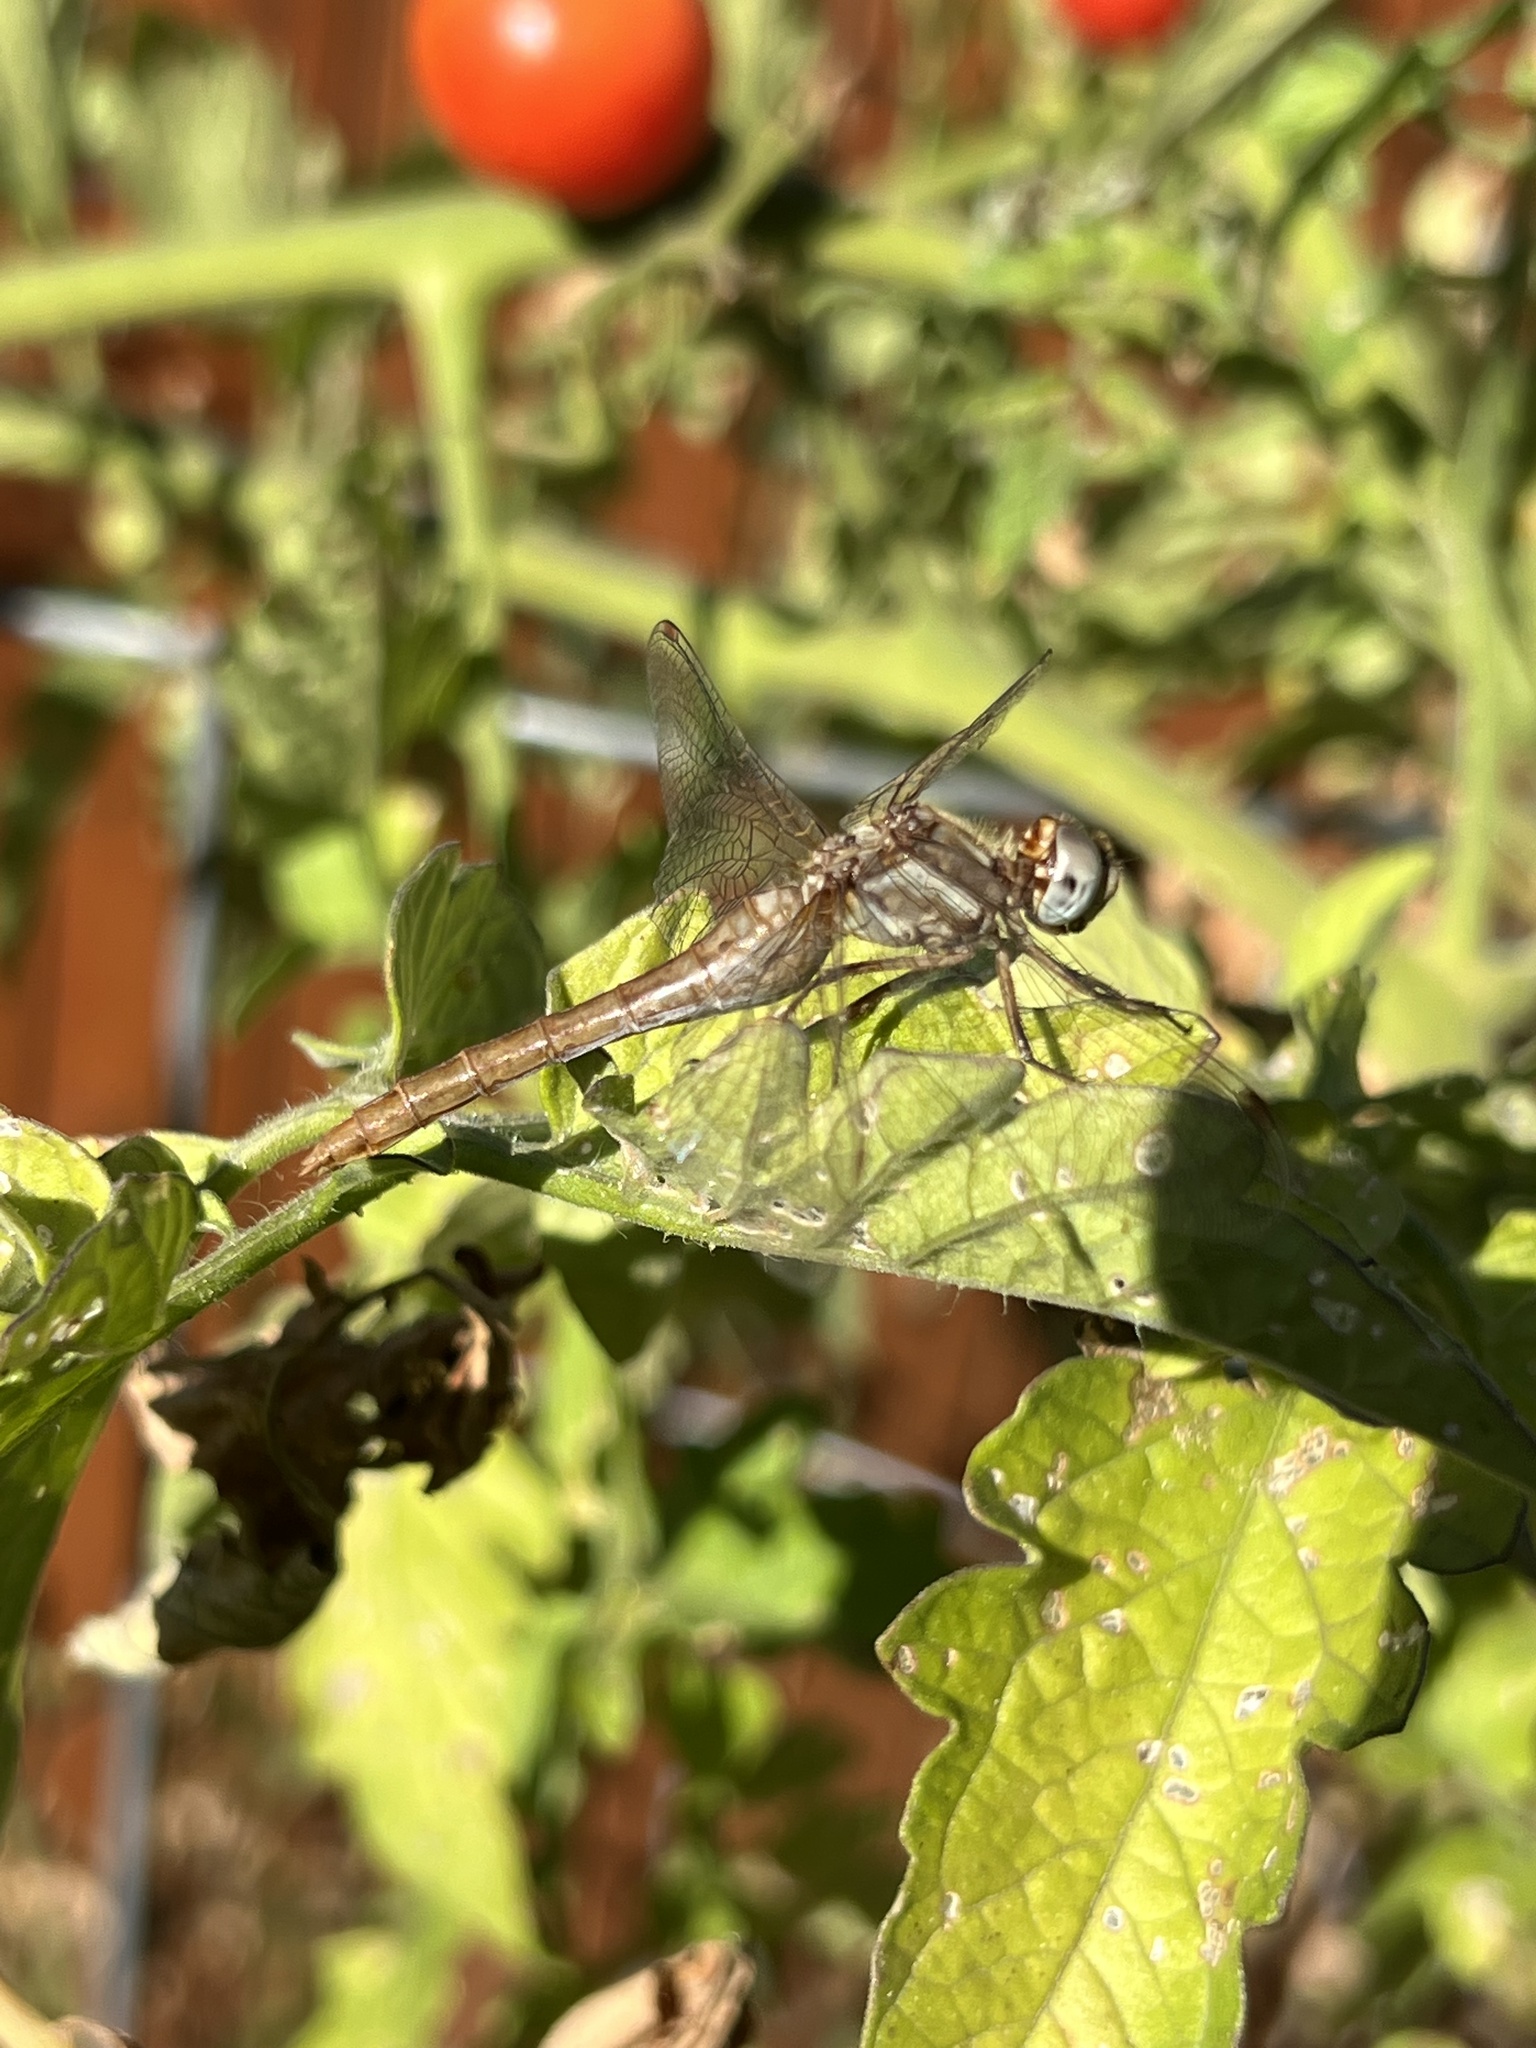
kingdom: Animalia
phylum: Arthropoda
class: Insecta
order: Odonata
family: Libellulidae
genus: Sympetrum
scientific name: Sympetrum pallipes
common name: Striped meadowhawk
